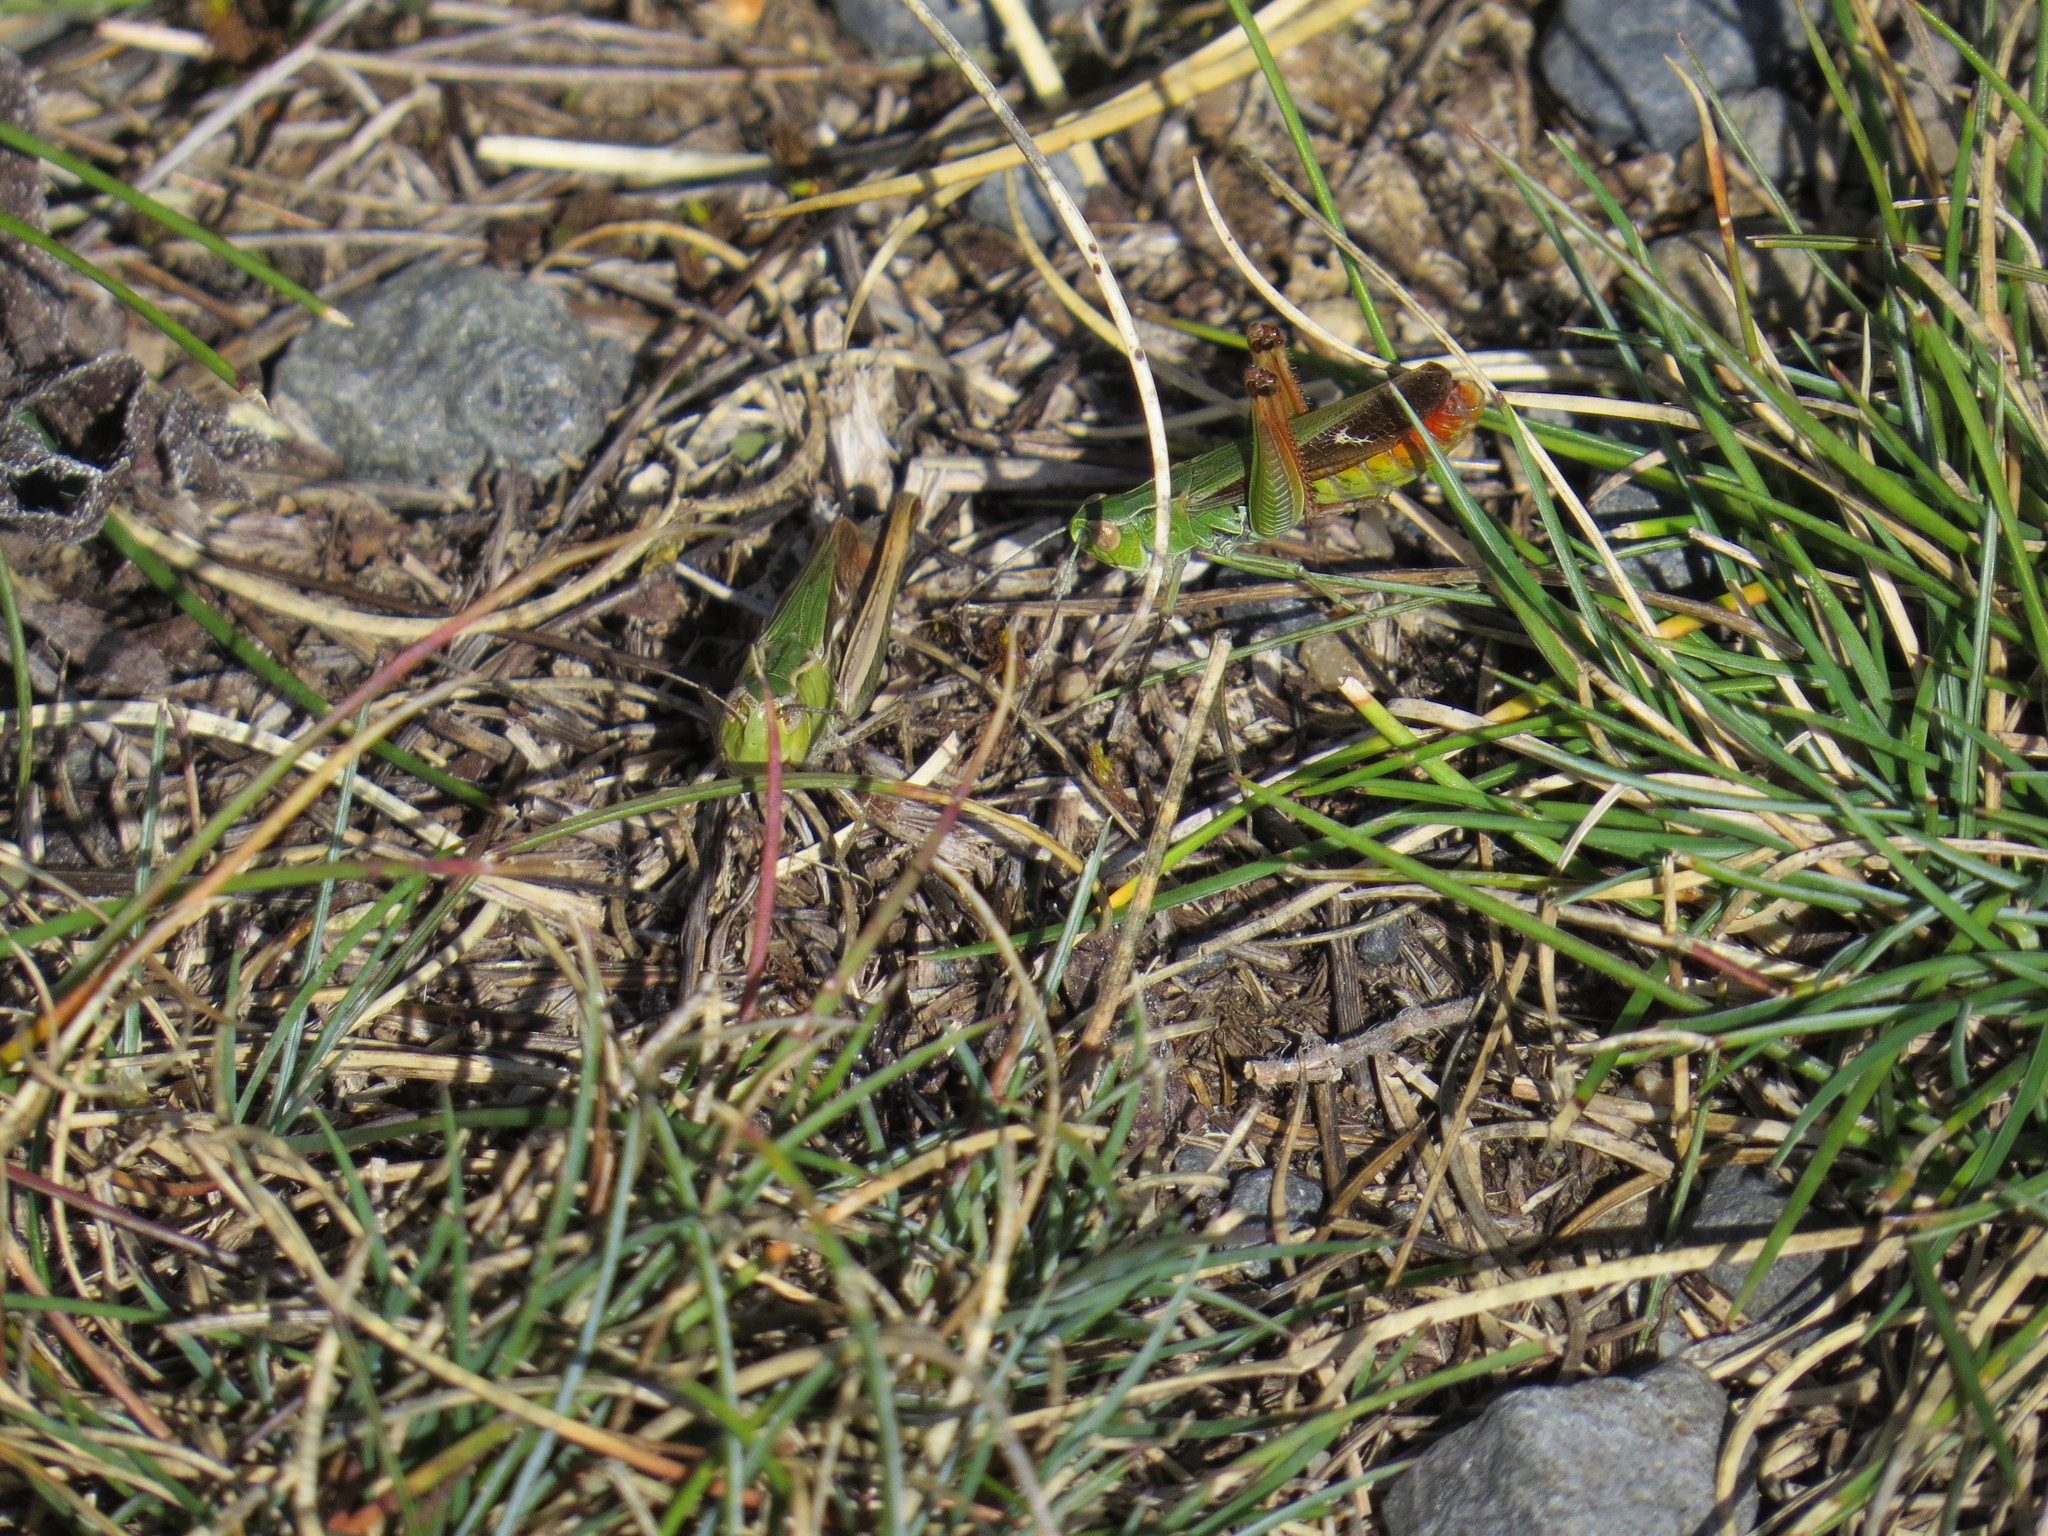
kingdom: Animalia
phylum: Arthropoda
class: Insecta
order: Orthoptera
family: Acrididae
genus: Stenobothrus
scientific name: Stenobothrus lineatus
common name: Stripe-winged grasshopper
